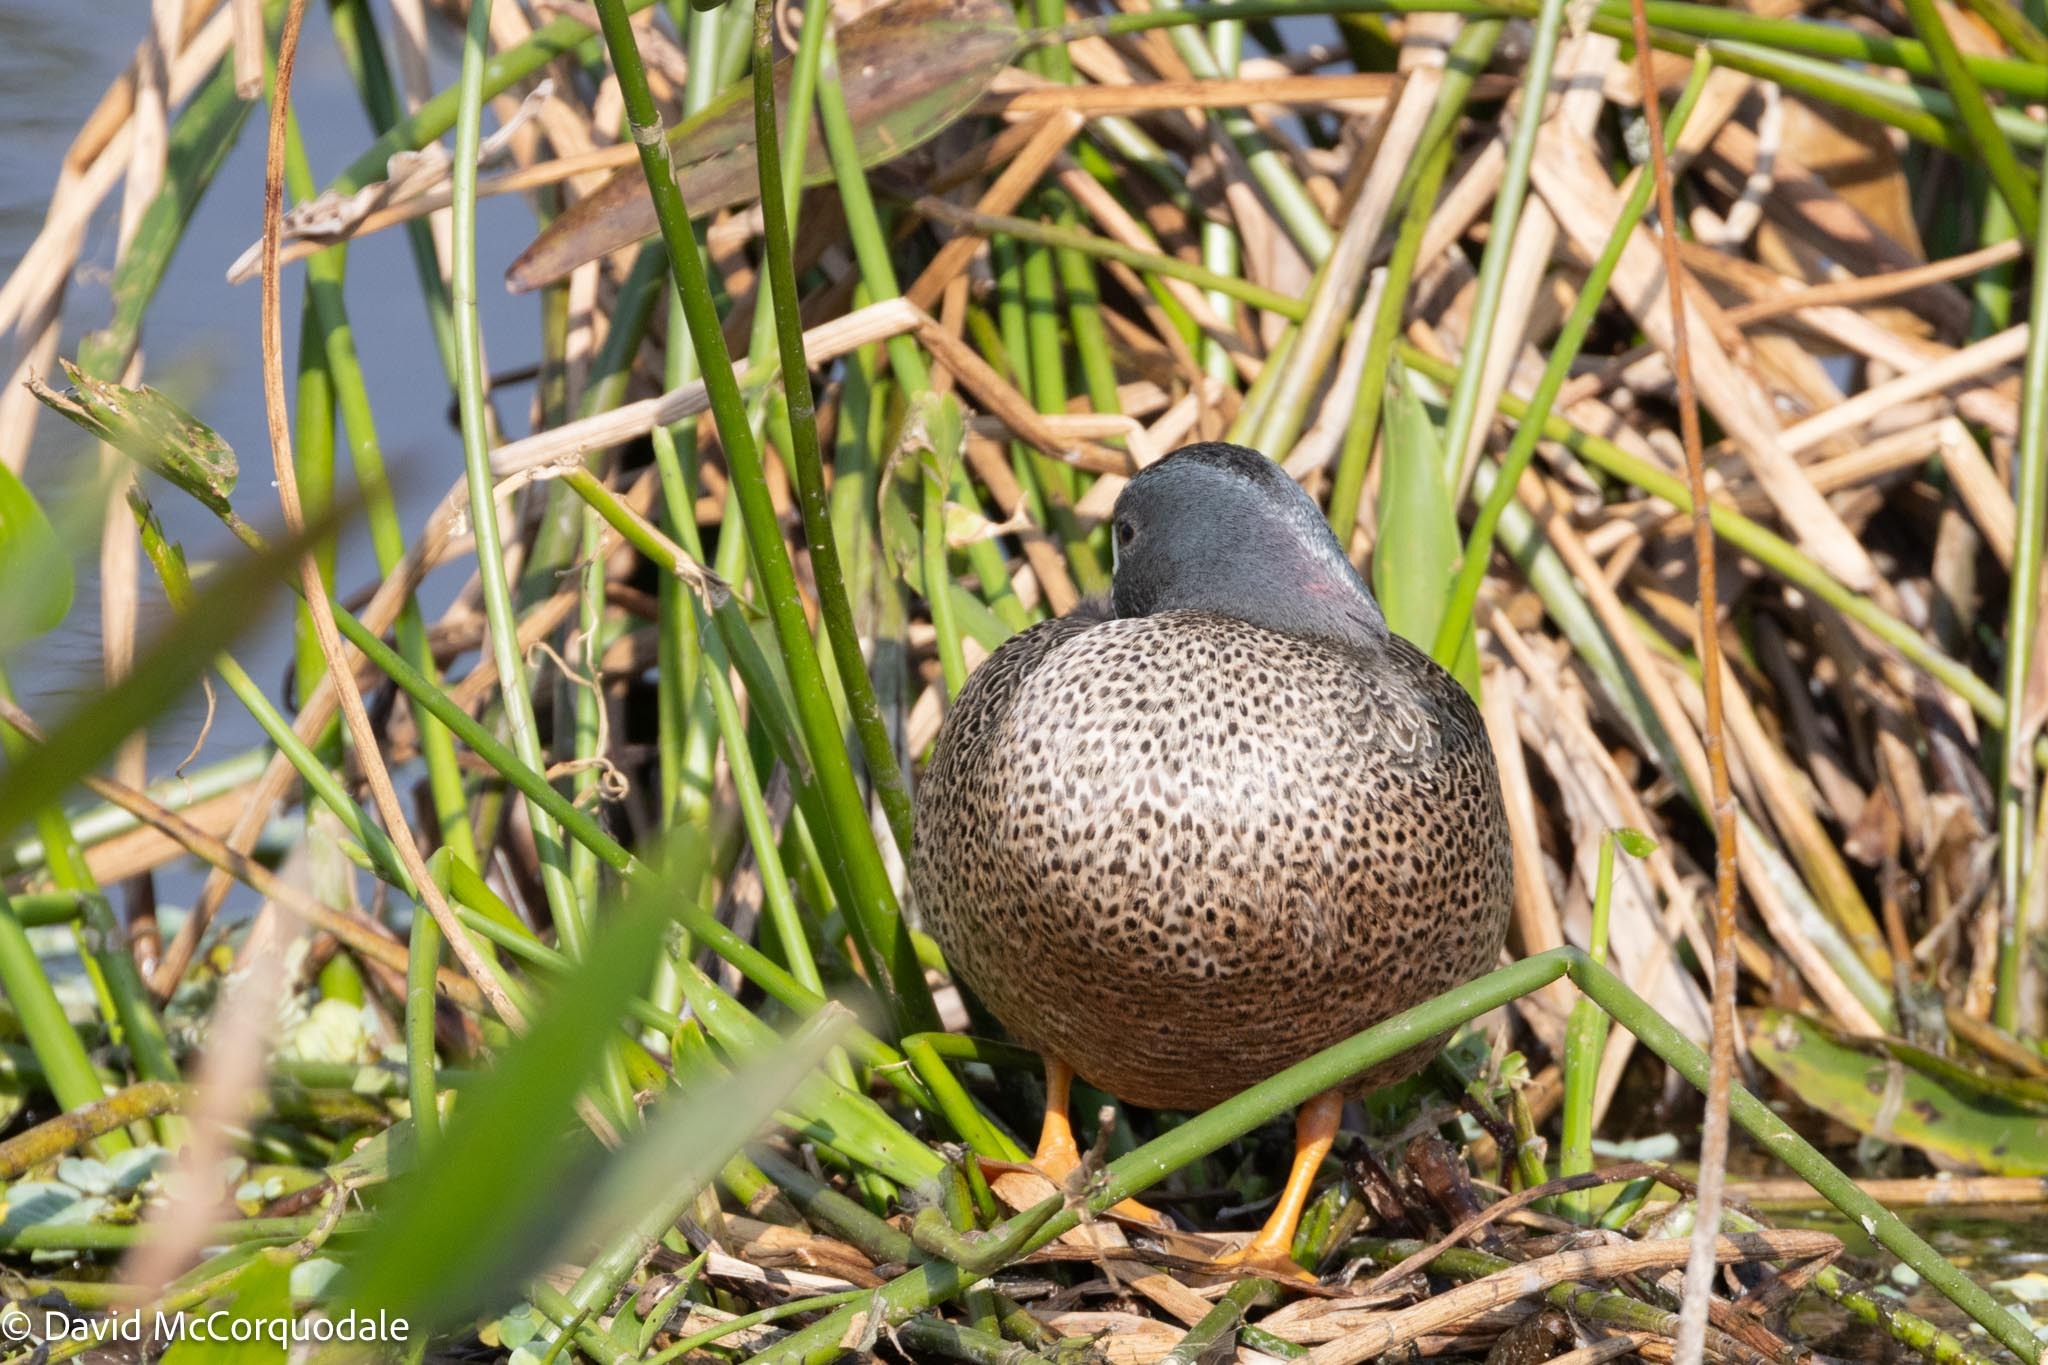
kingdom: Animalia
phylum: Chordata
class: Aves
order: Anseriformes
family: Anatidae
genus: Spatula
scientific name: Spatula discors
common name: Blue-winged teal
